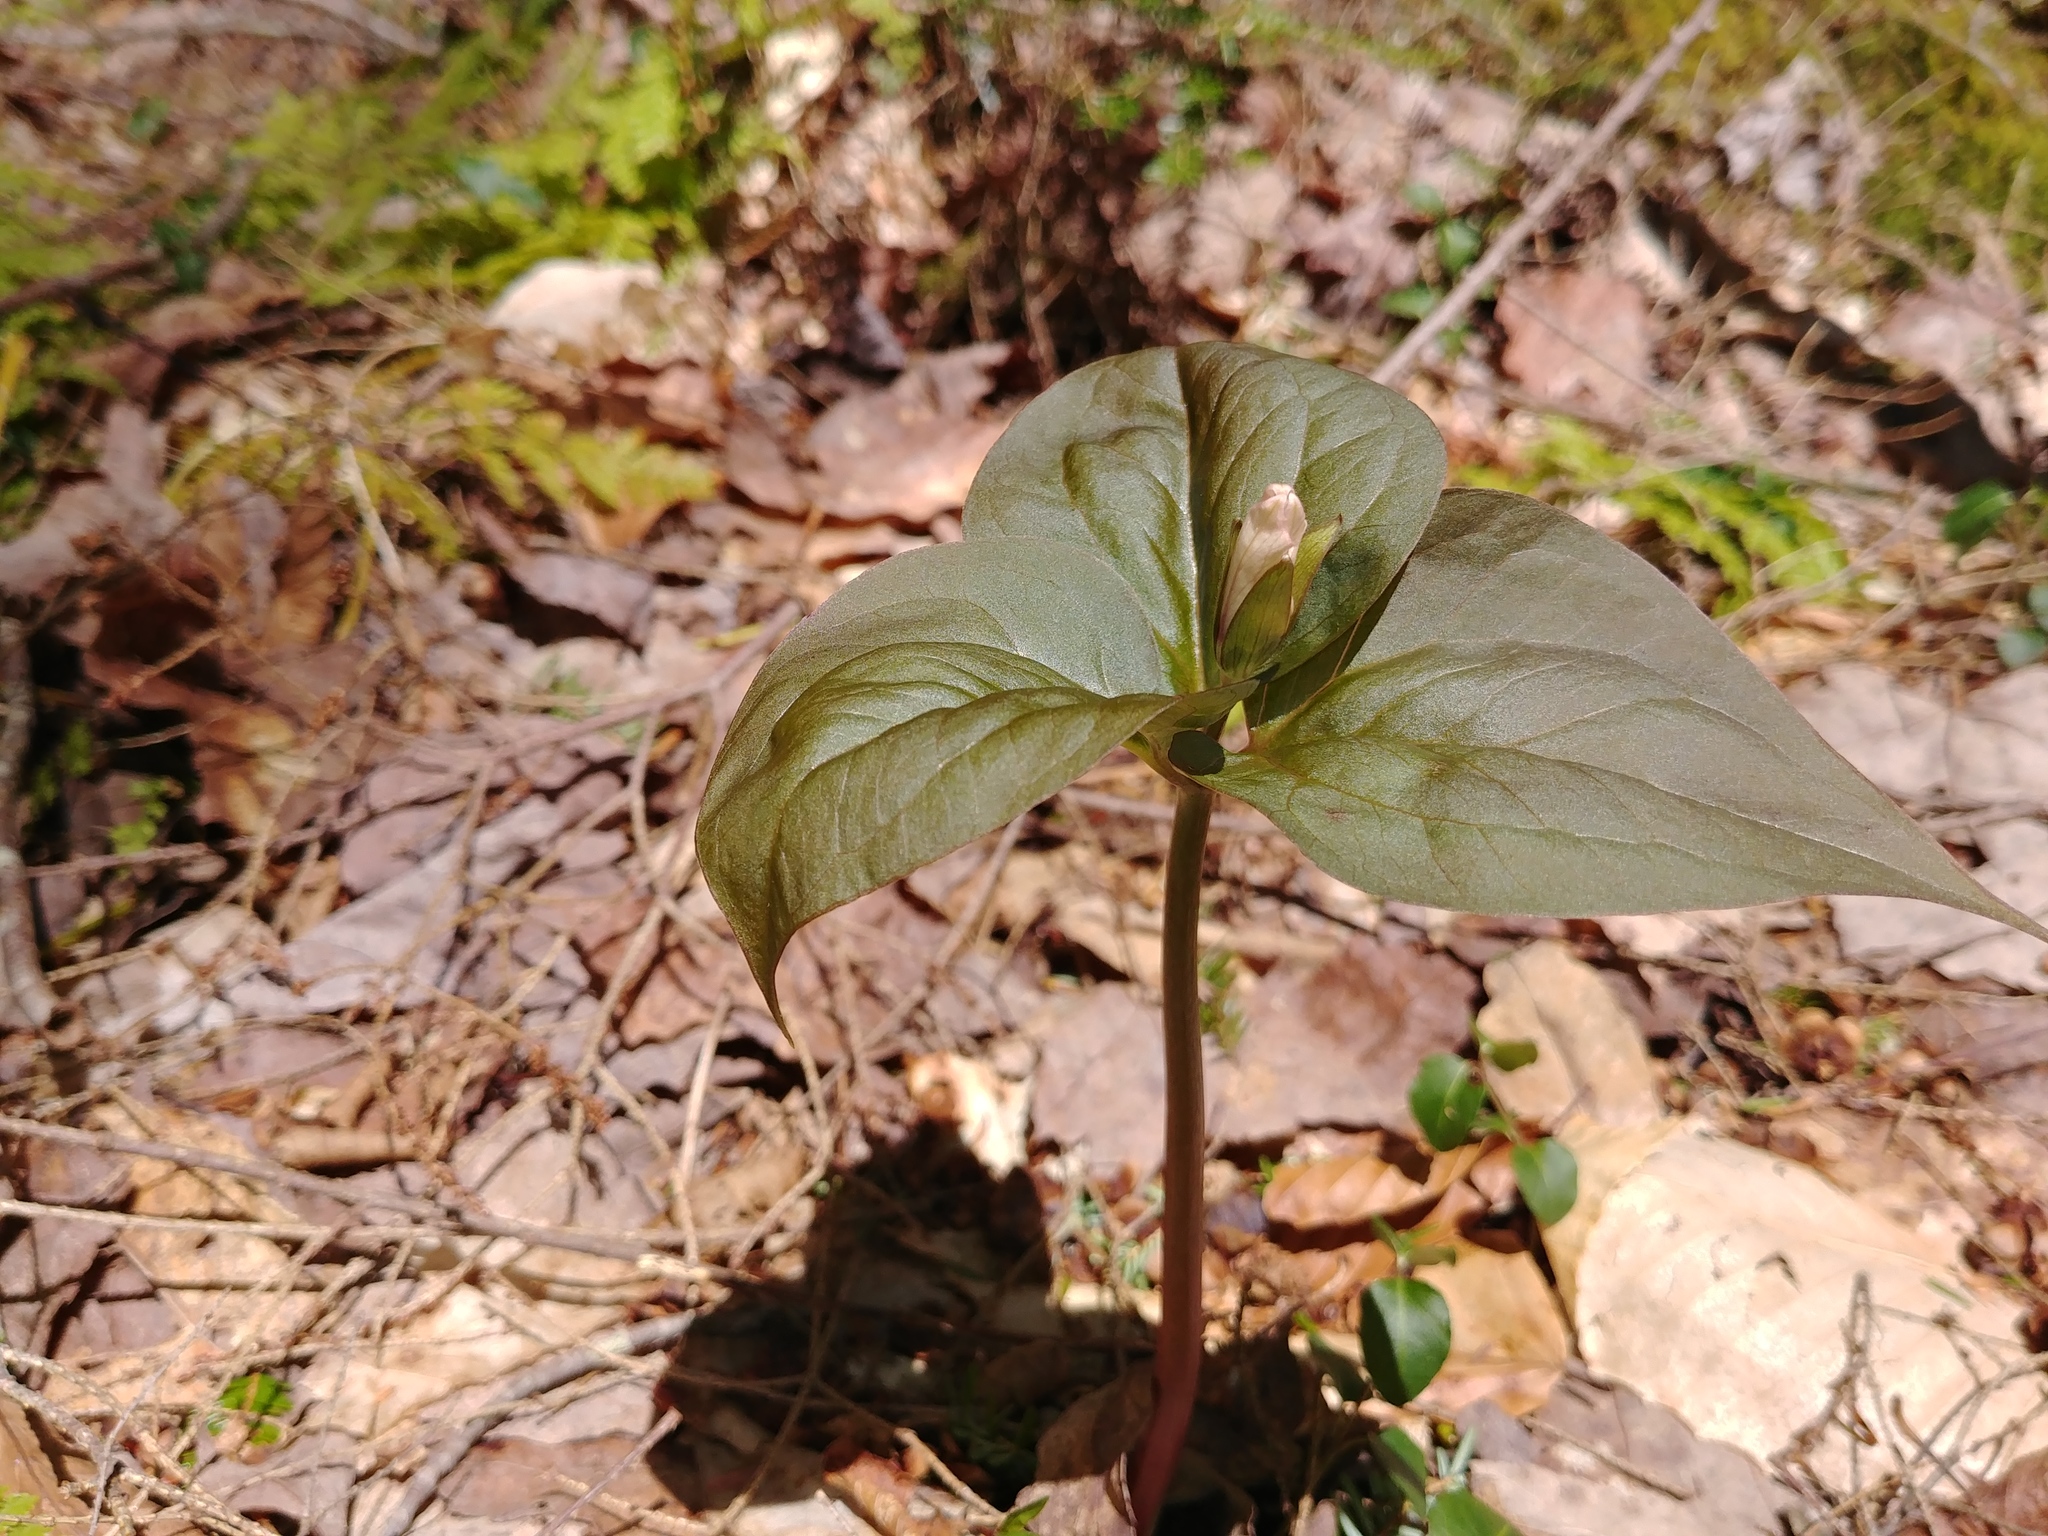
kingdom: Plantae
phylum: Tracheophyta
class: Liliopsida
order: Liliales
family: Melanthiaceae
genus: Trillium
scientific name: Trillium undulatum
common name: Paint trillium
